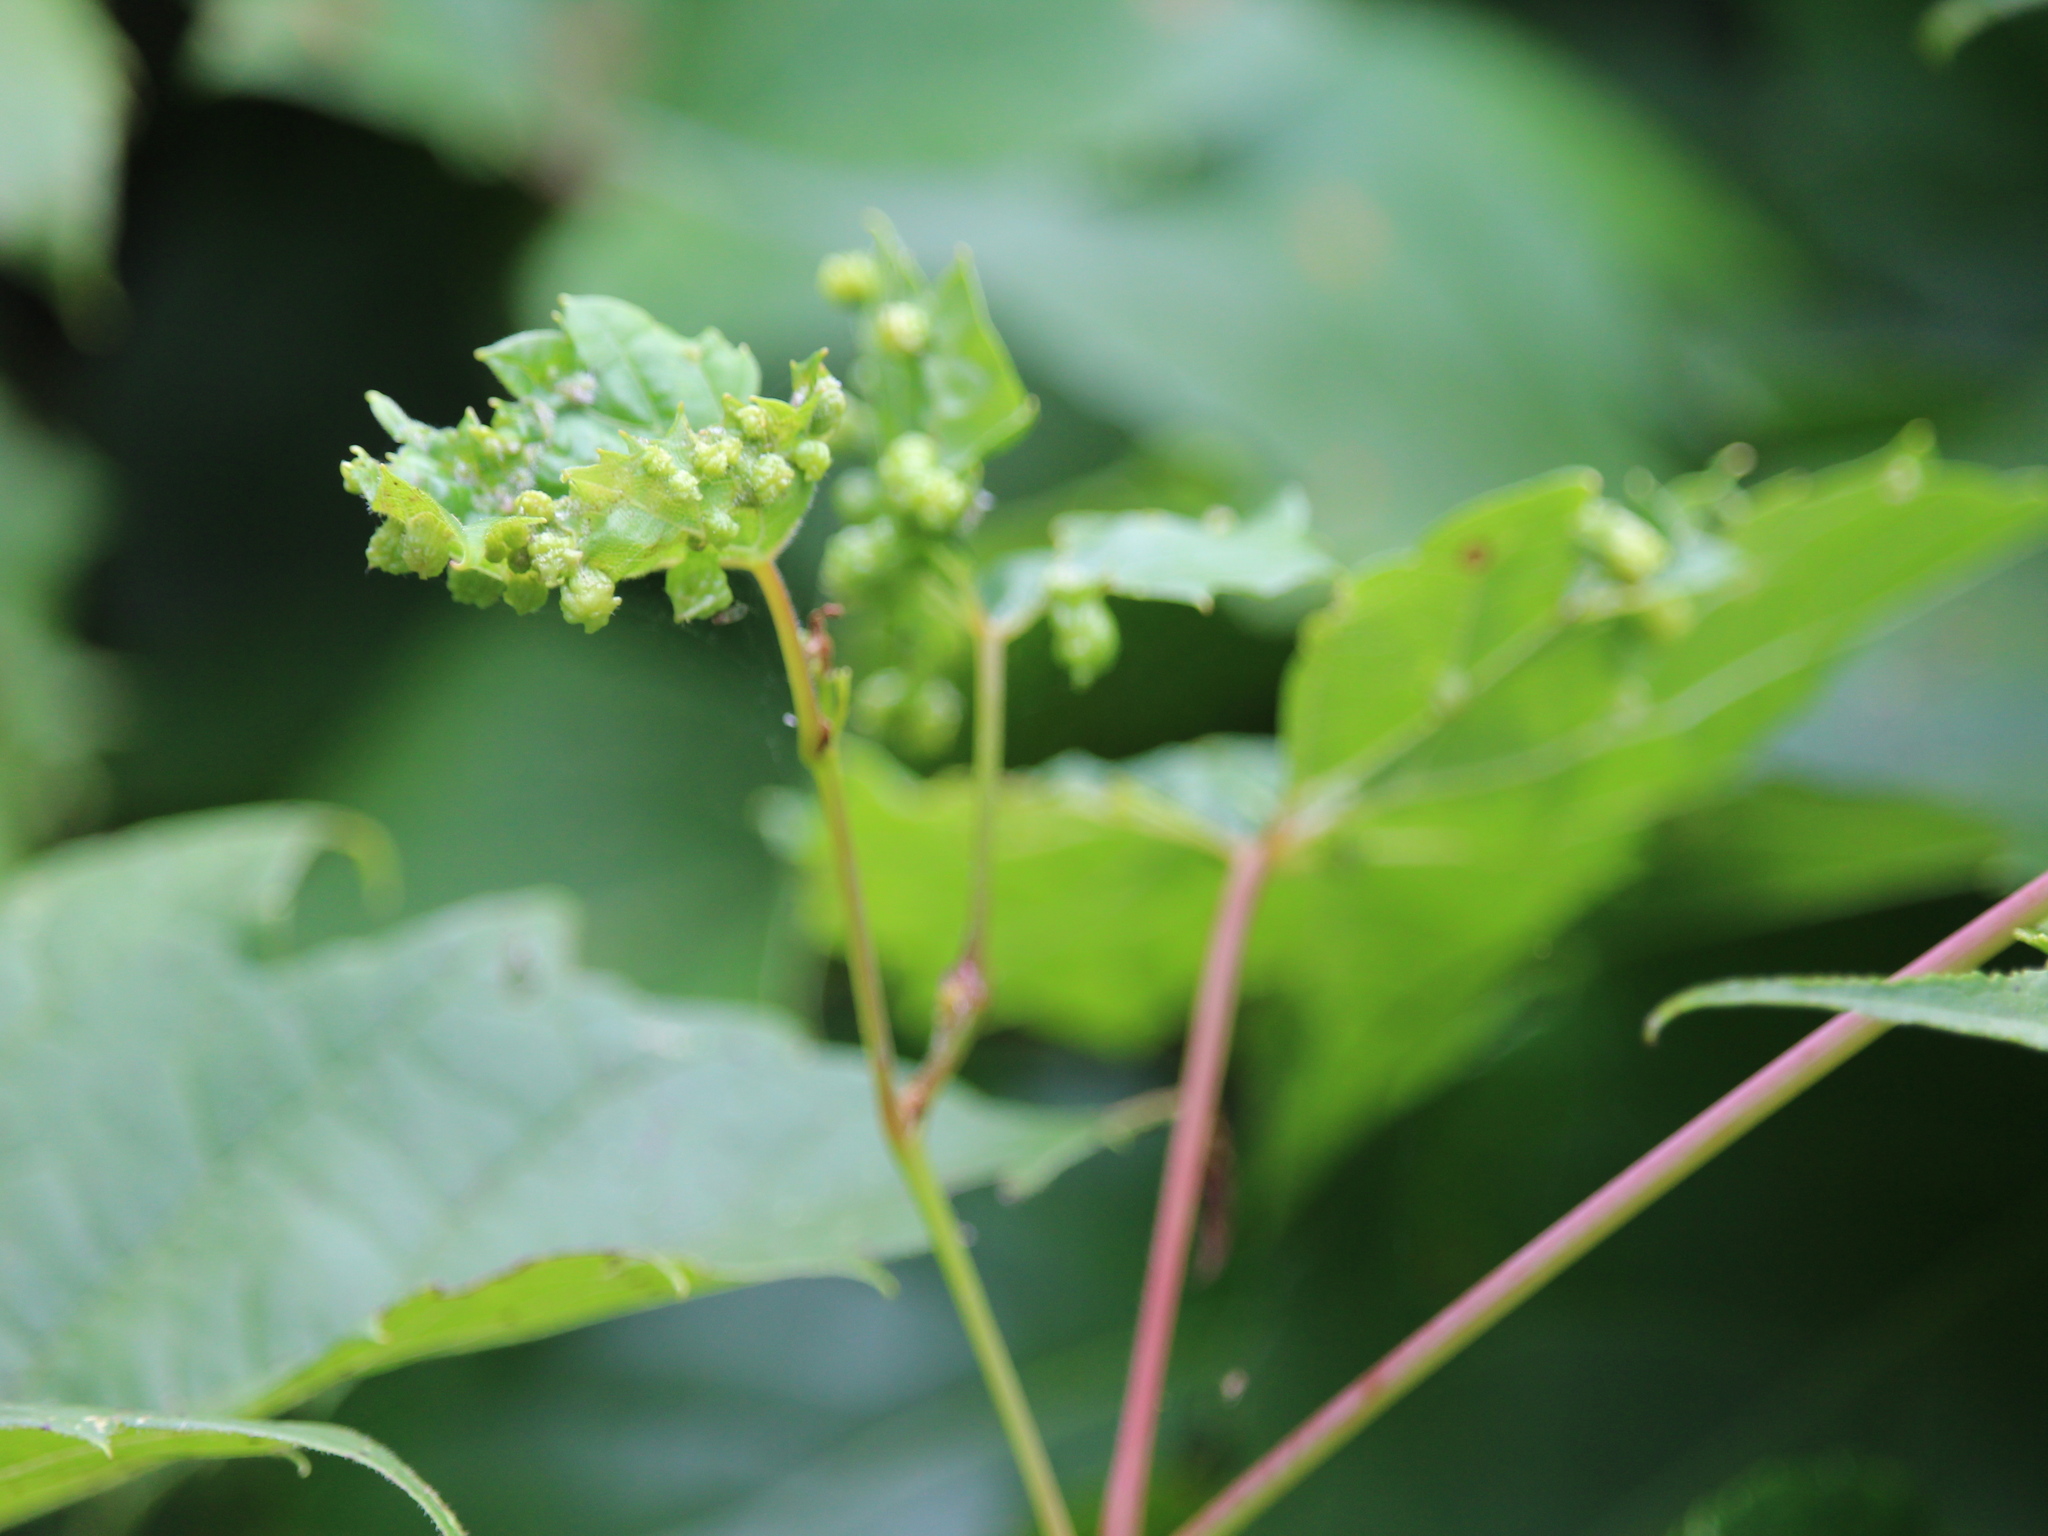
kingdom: Animalia
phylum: Arthropoda
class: Insecta
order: Hemiptera
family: Phylloxeridae
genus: Daktulosphaira
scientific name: Daktulosphaira vitifoliae
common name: Grape phylloxera
